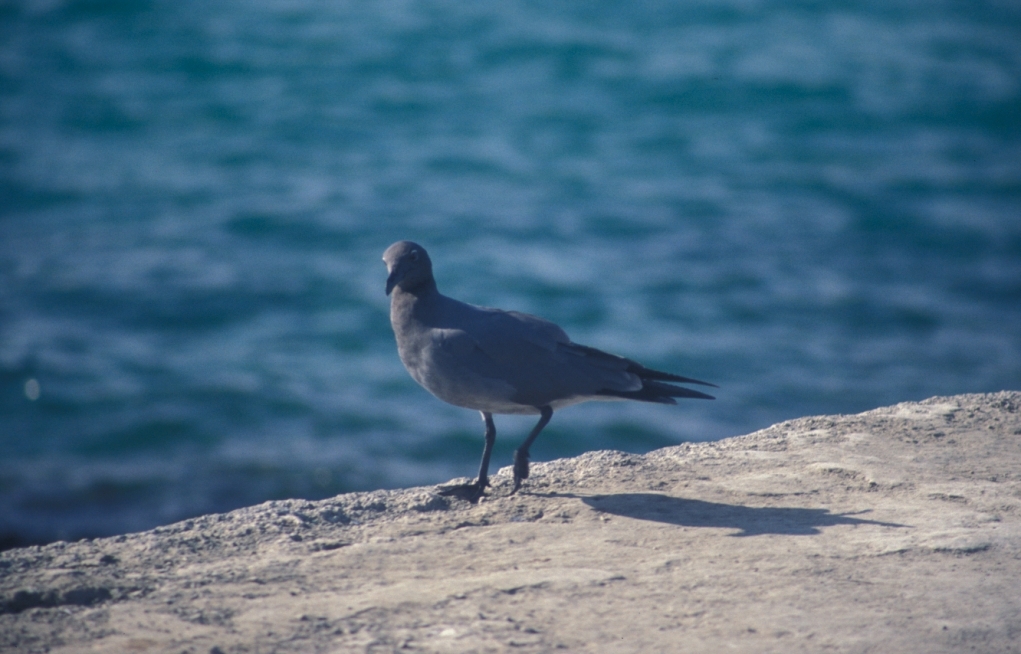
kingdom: Animalia
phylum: Chordata
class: Aves
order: Charadriiformes
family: Laridae
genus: Leucophaeus
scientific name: Leucophaeus fuliginosus
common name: Lava gull
